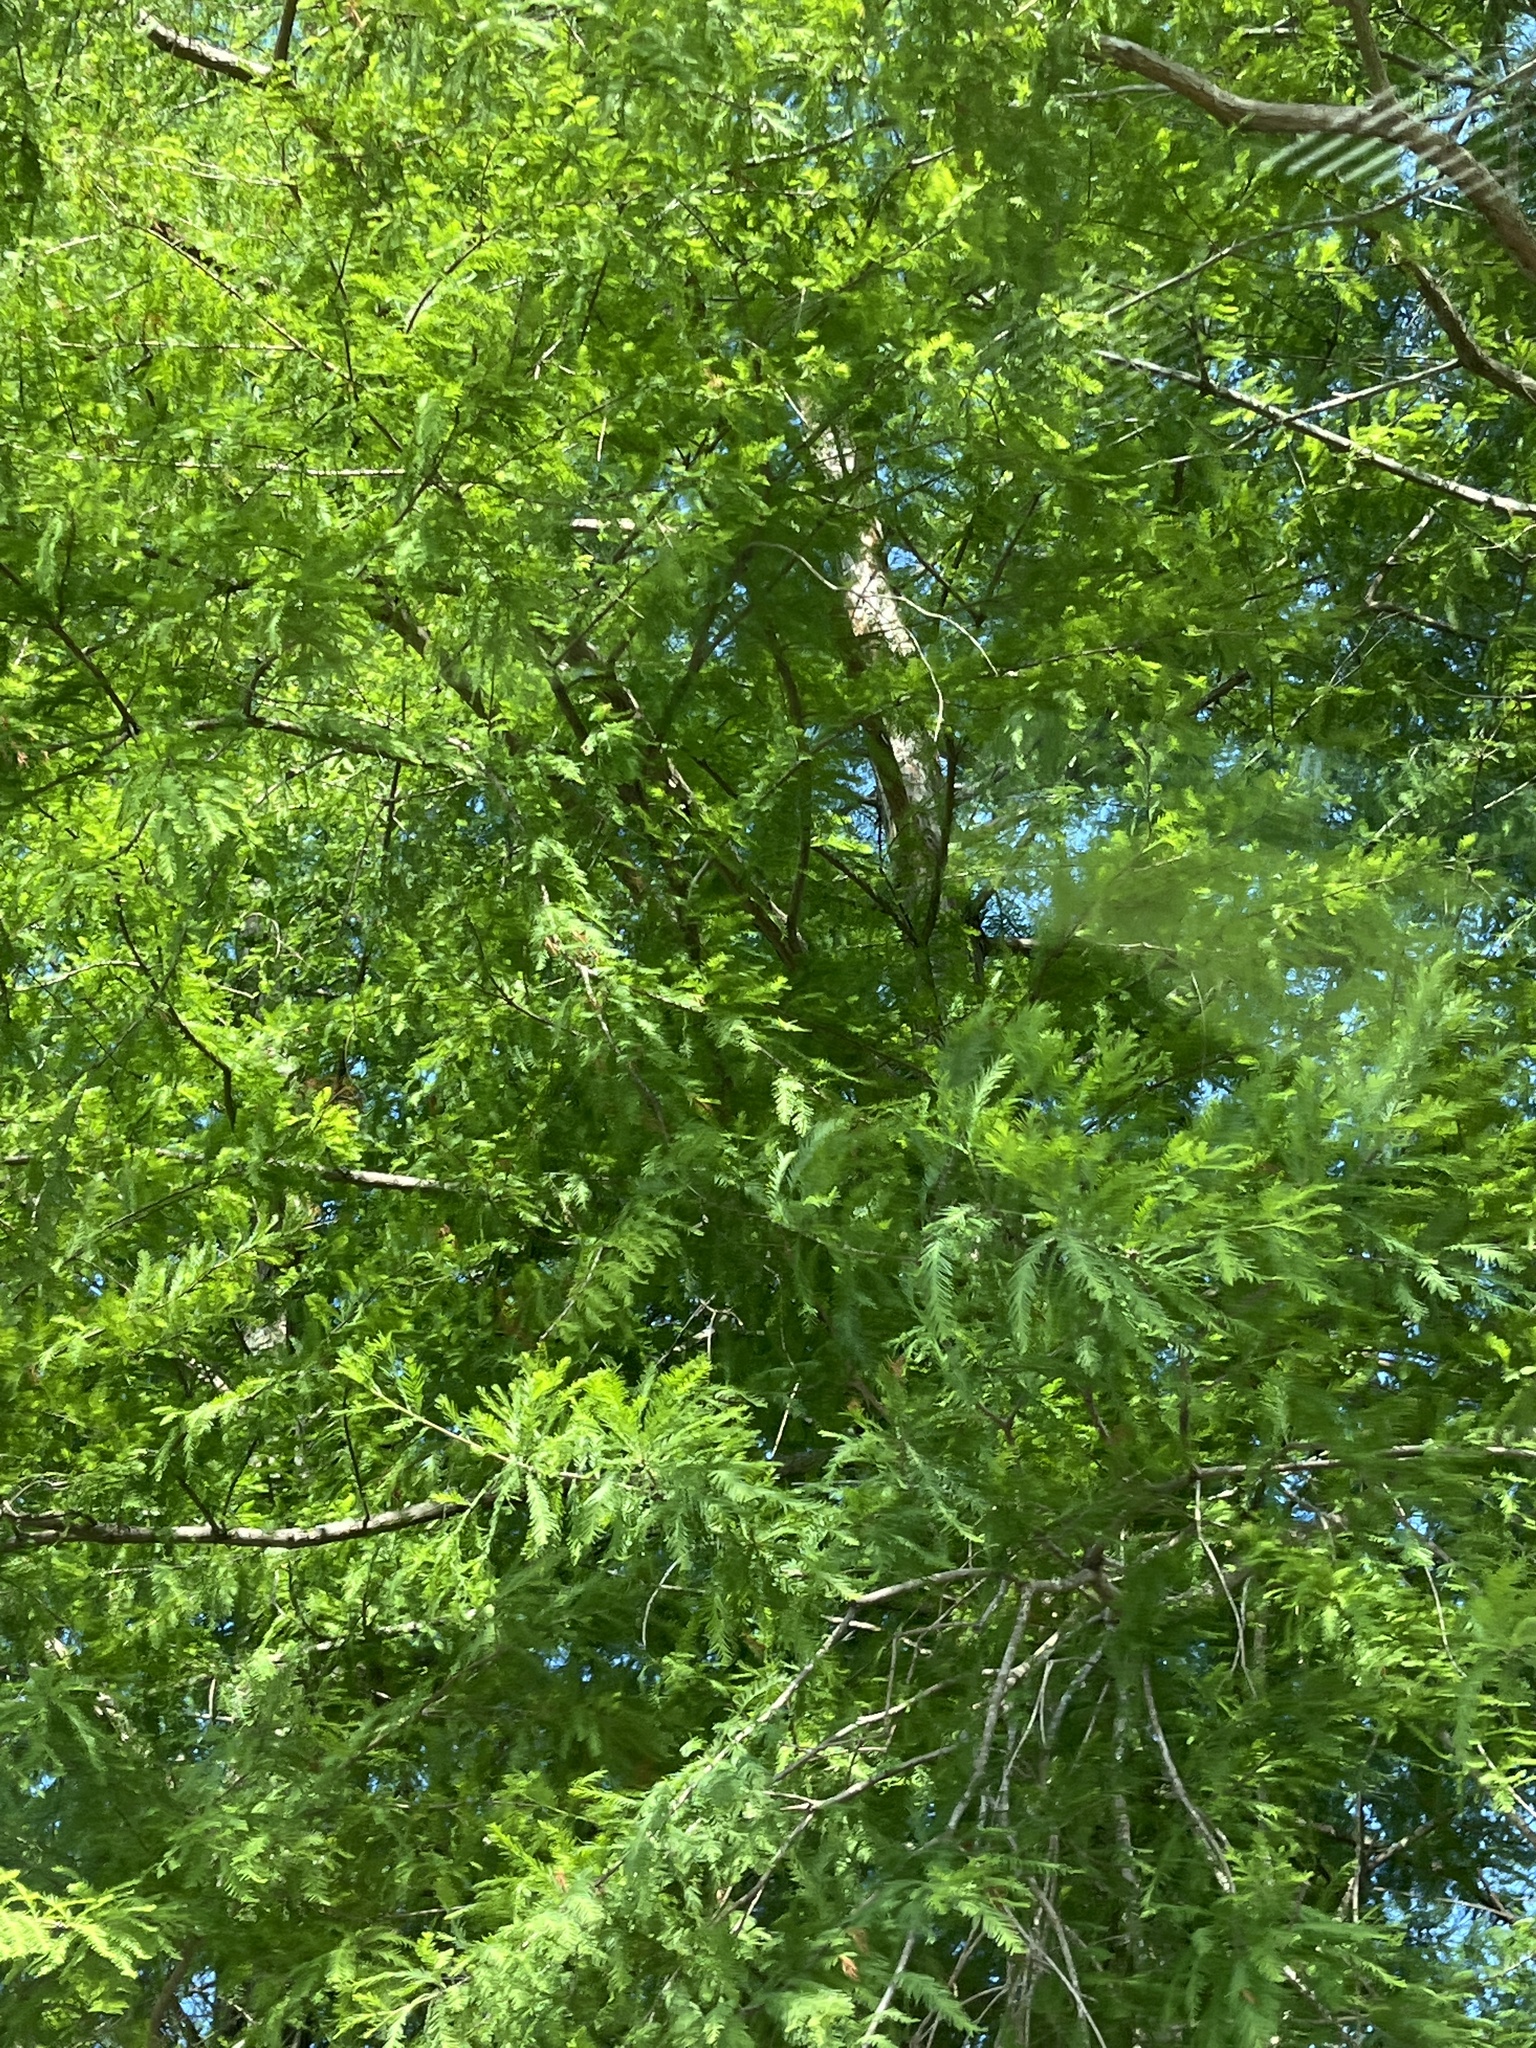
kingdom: Plantae
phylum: Tracheophyta
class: Pinopsida
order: Pinales
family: Cupressaceae
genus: Taxodium
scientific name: Taxodium distichum
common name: Bald cypress
